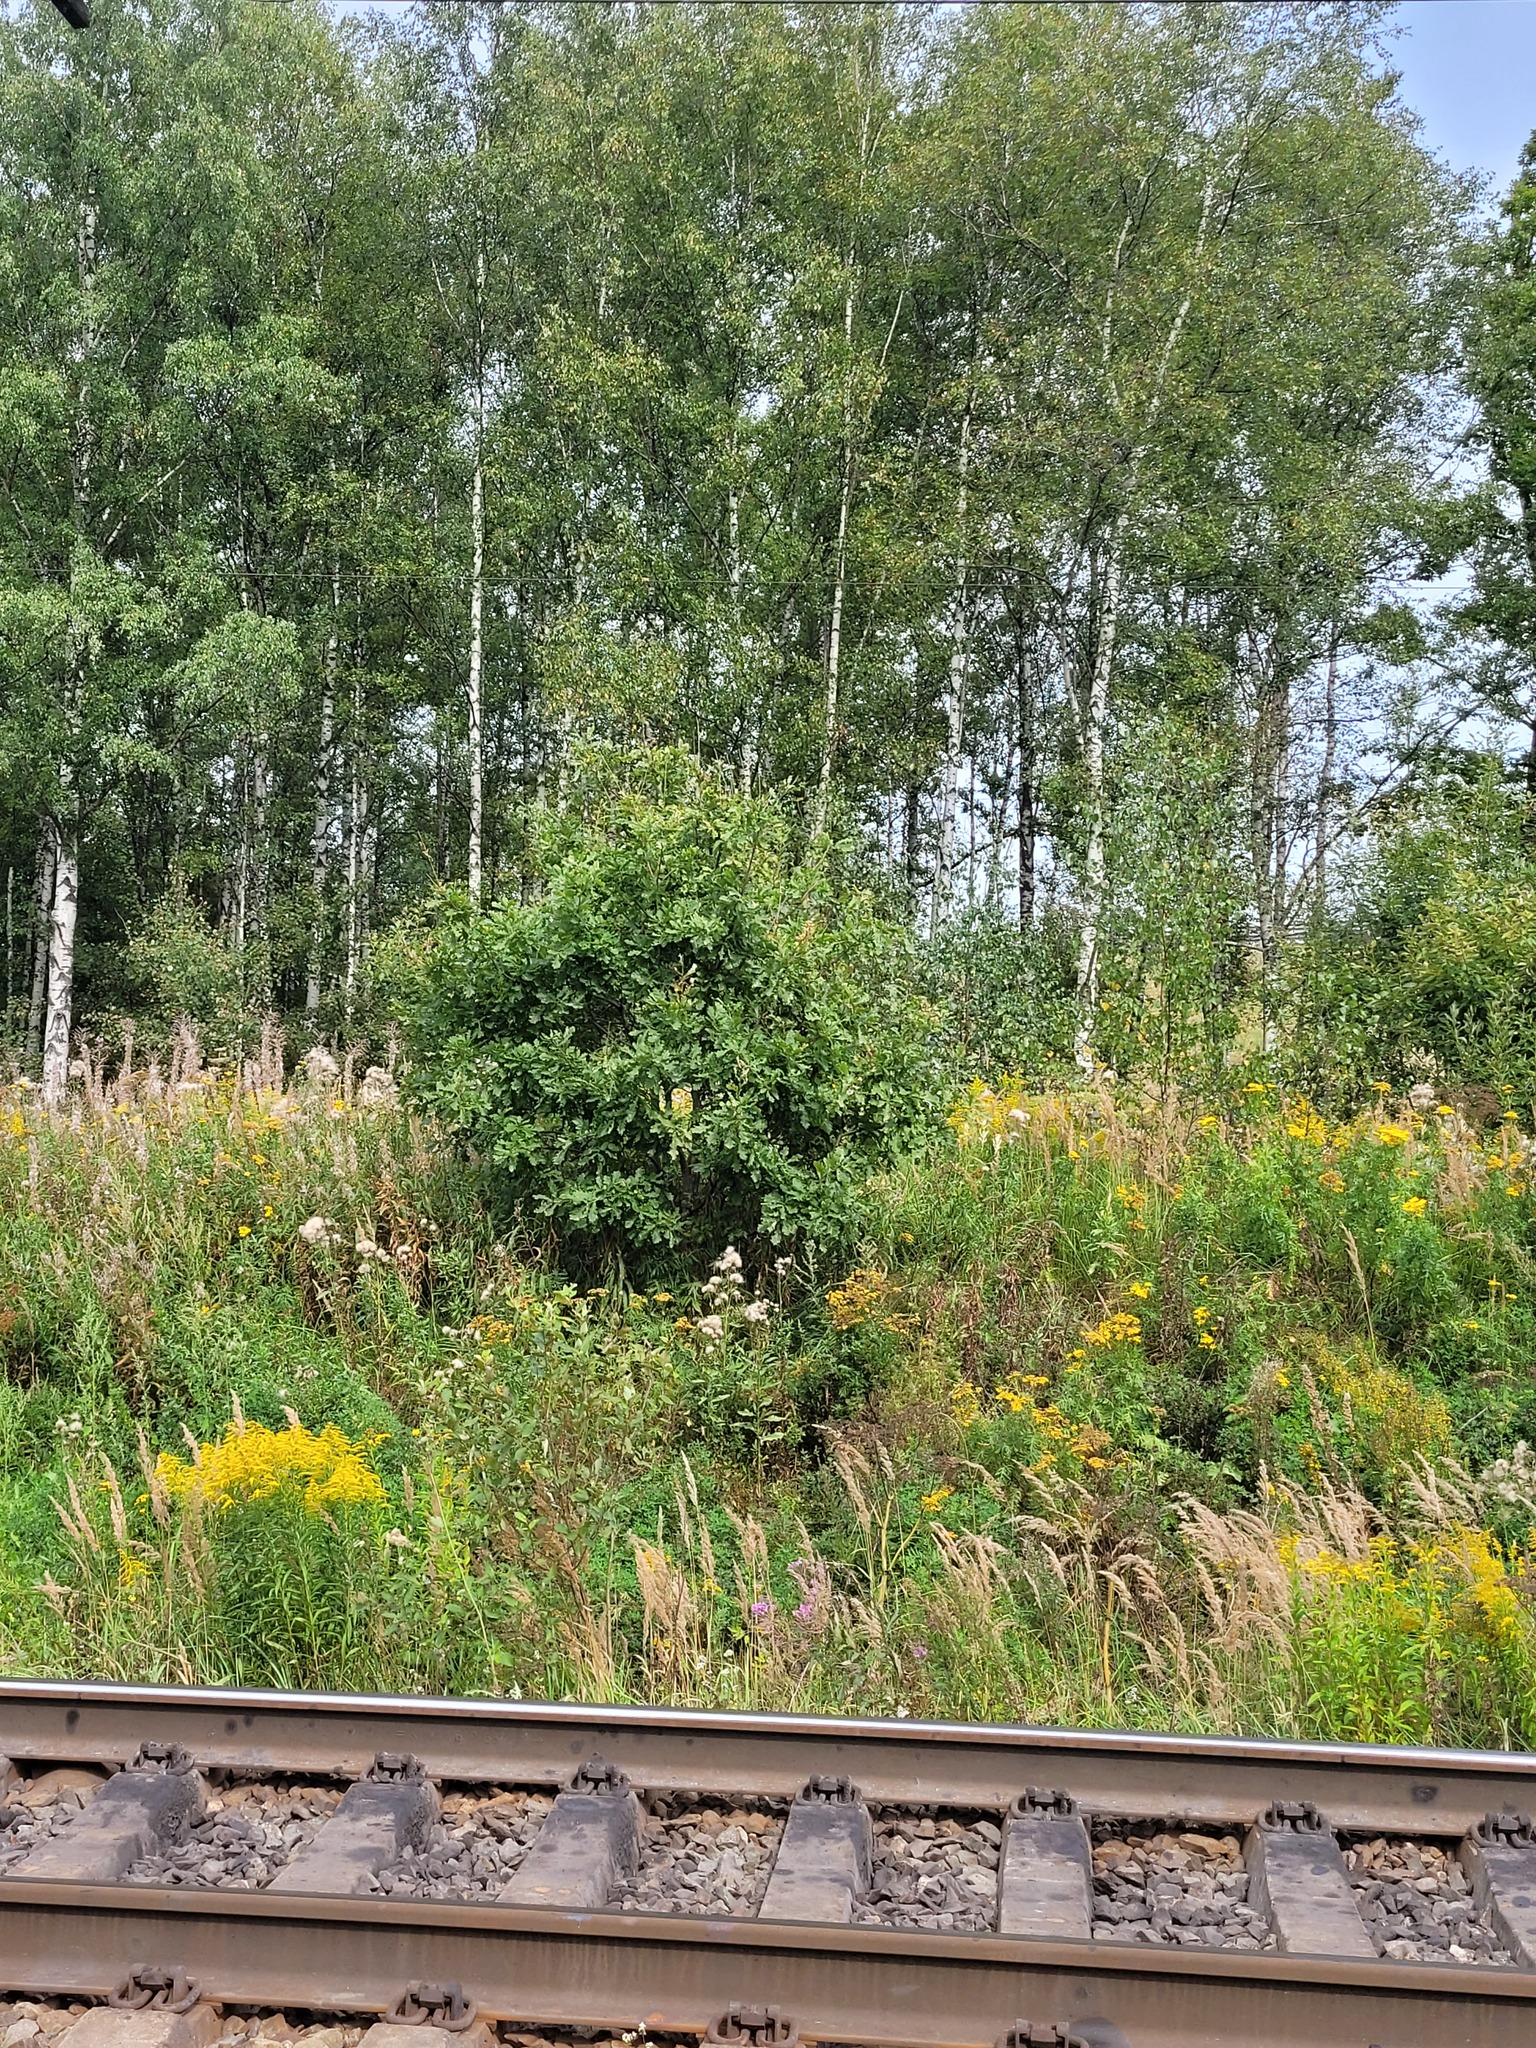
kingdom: Plantae
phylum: Tracheophyta
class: Magnoliopsida
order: Fagales
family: Fagaceae
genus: Quercus
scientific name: Quercus robur
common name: Pedunculate oak
